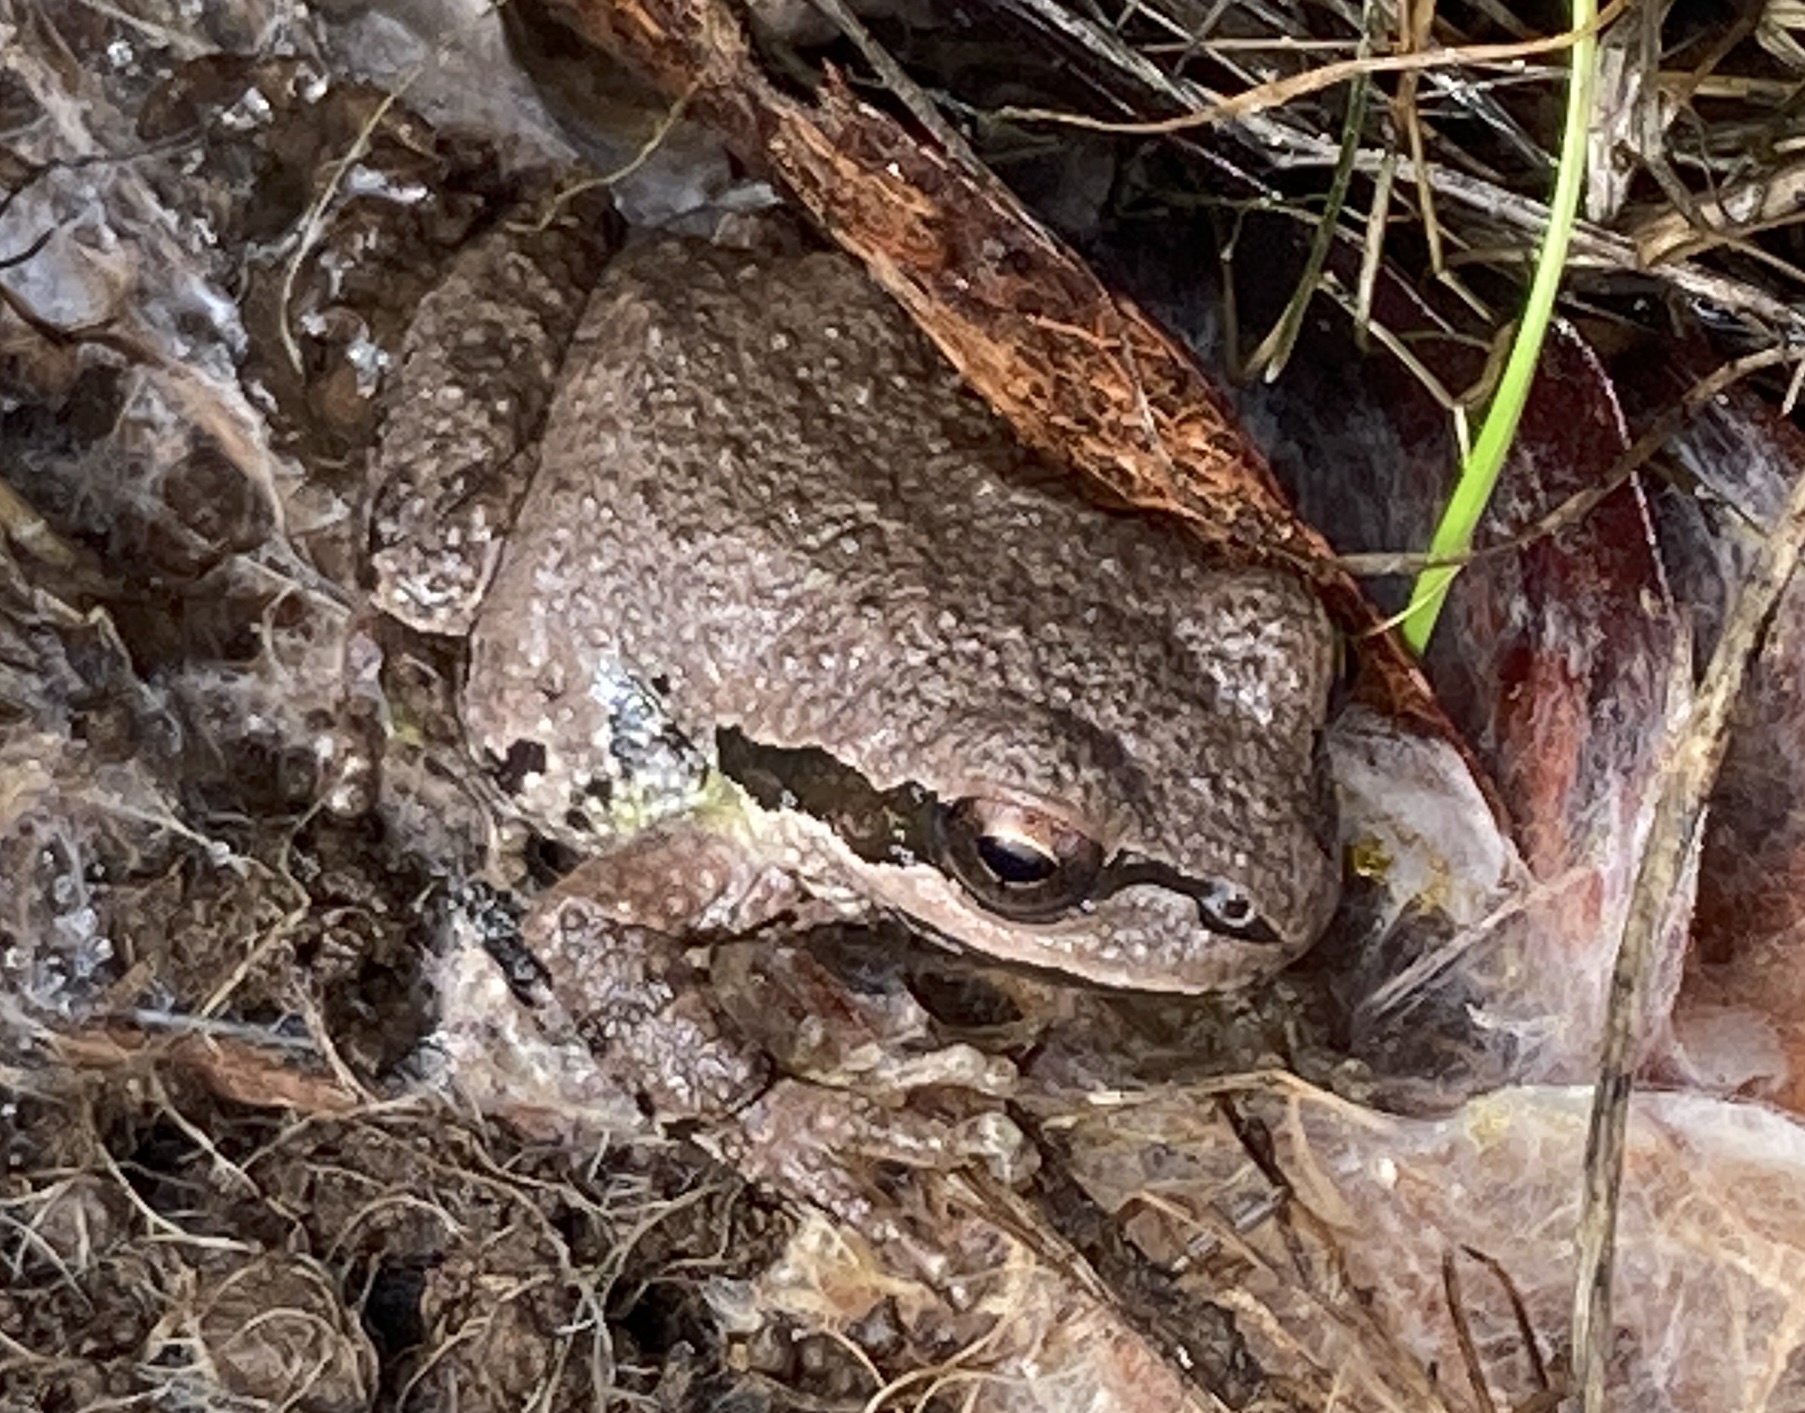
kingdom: Animalia
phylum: Chordata
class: Amphibia
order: Anura
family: Hylidae
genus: Pseudacris
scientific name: Pseudacris regilla
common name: Pacific chorus frog
